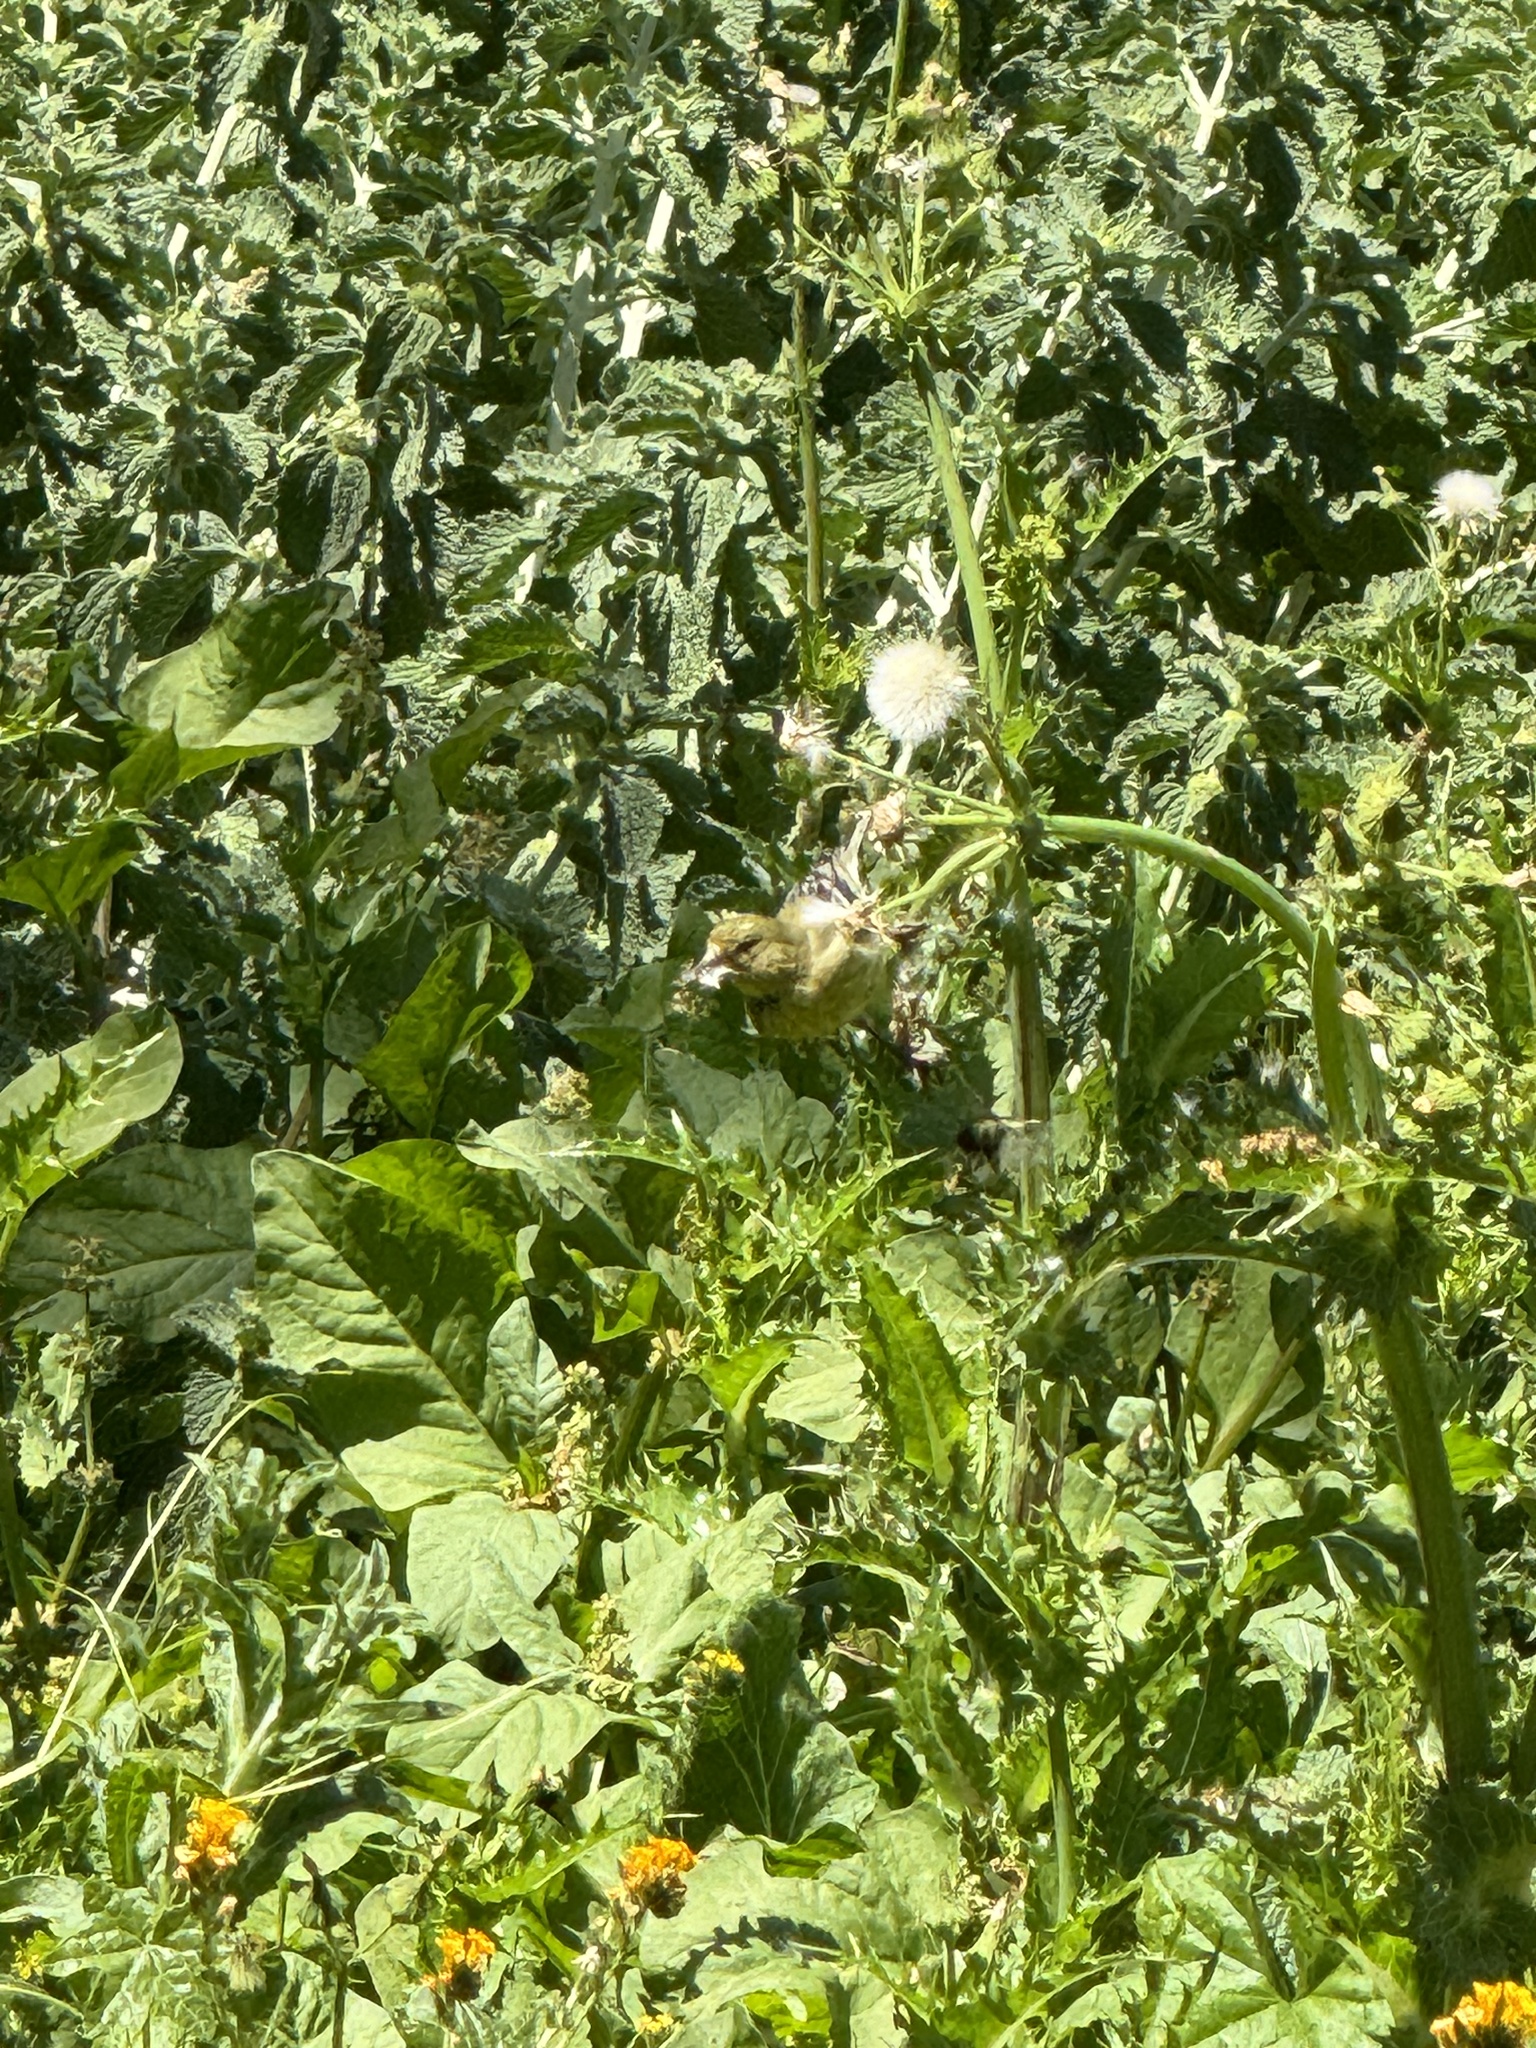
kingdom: Animalia
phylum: Chordata
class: Aves
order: Passeriformes
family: Fringillidae
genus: Spinus
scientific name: Spinus psaltria
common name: Lesser goldfinch
